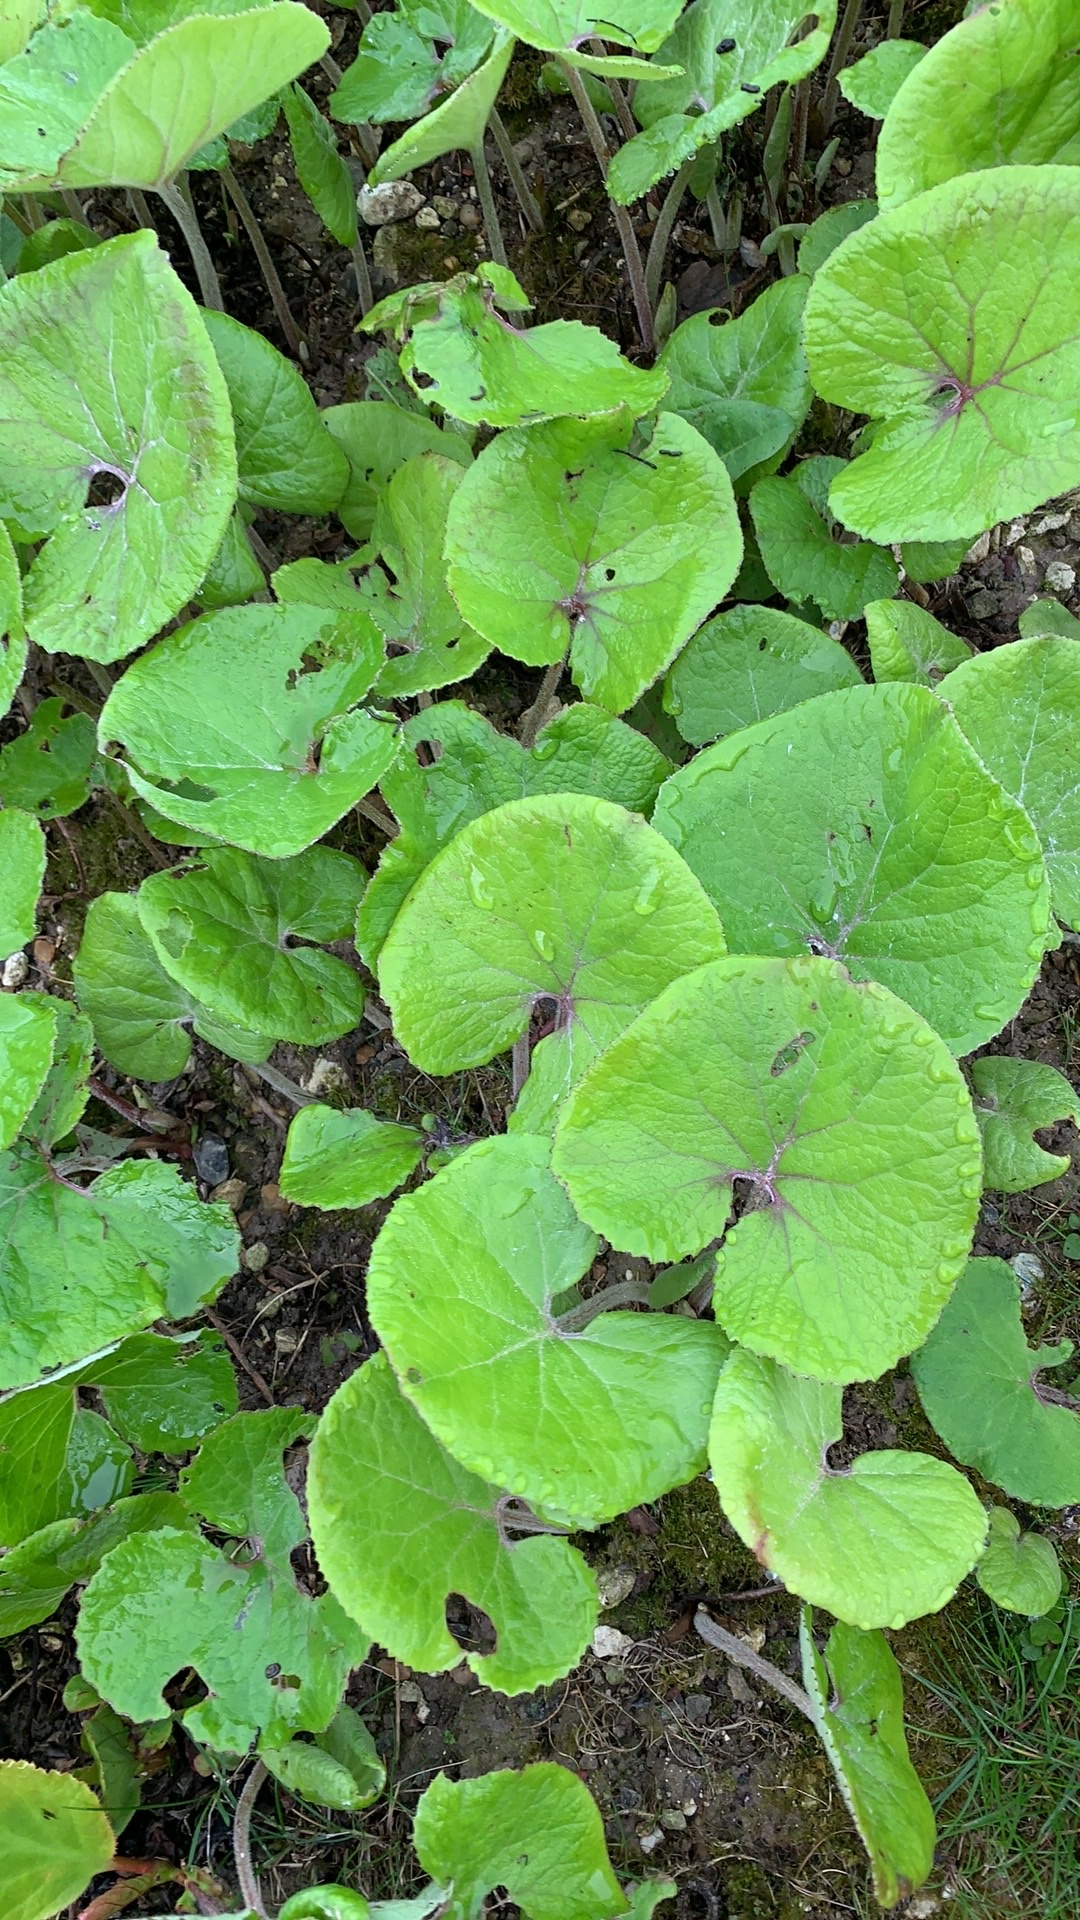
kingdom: Plantae
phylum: Tracheophyta
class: Magnoliopsida
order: Asterales
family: Asteraceae
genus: Petasites
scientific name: Petasites pyrenaicus
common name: Winter heliotrope
